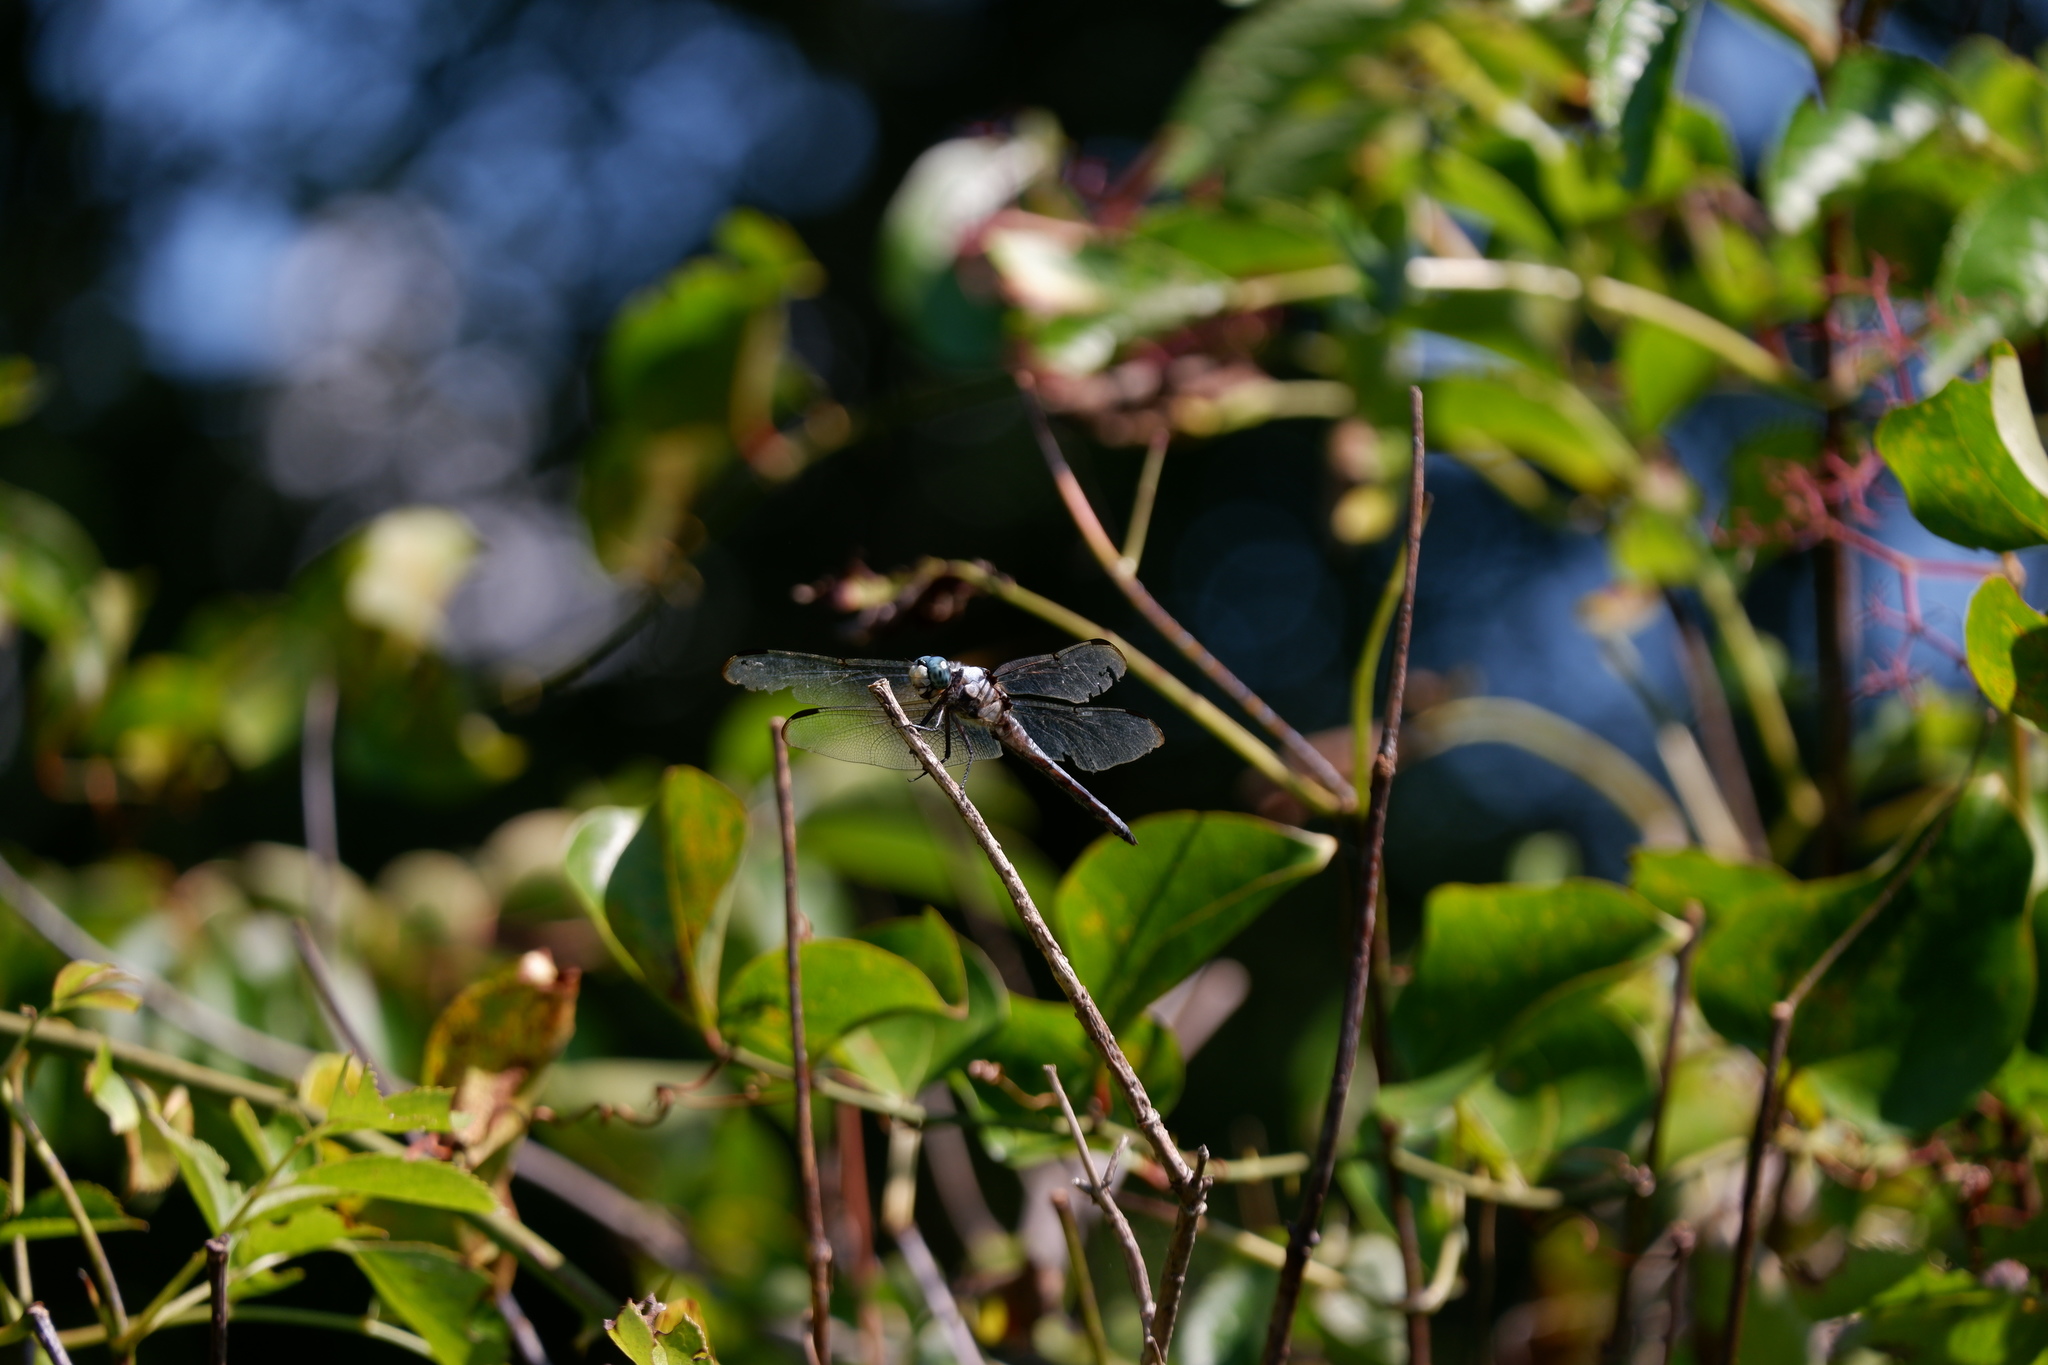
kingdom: Animalia
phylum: Arthropoda
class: Insecta
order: Odonata
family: Libellulidae
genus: Libellula
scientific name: Libellula vibrans
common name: Great blue skimmer
